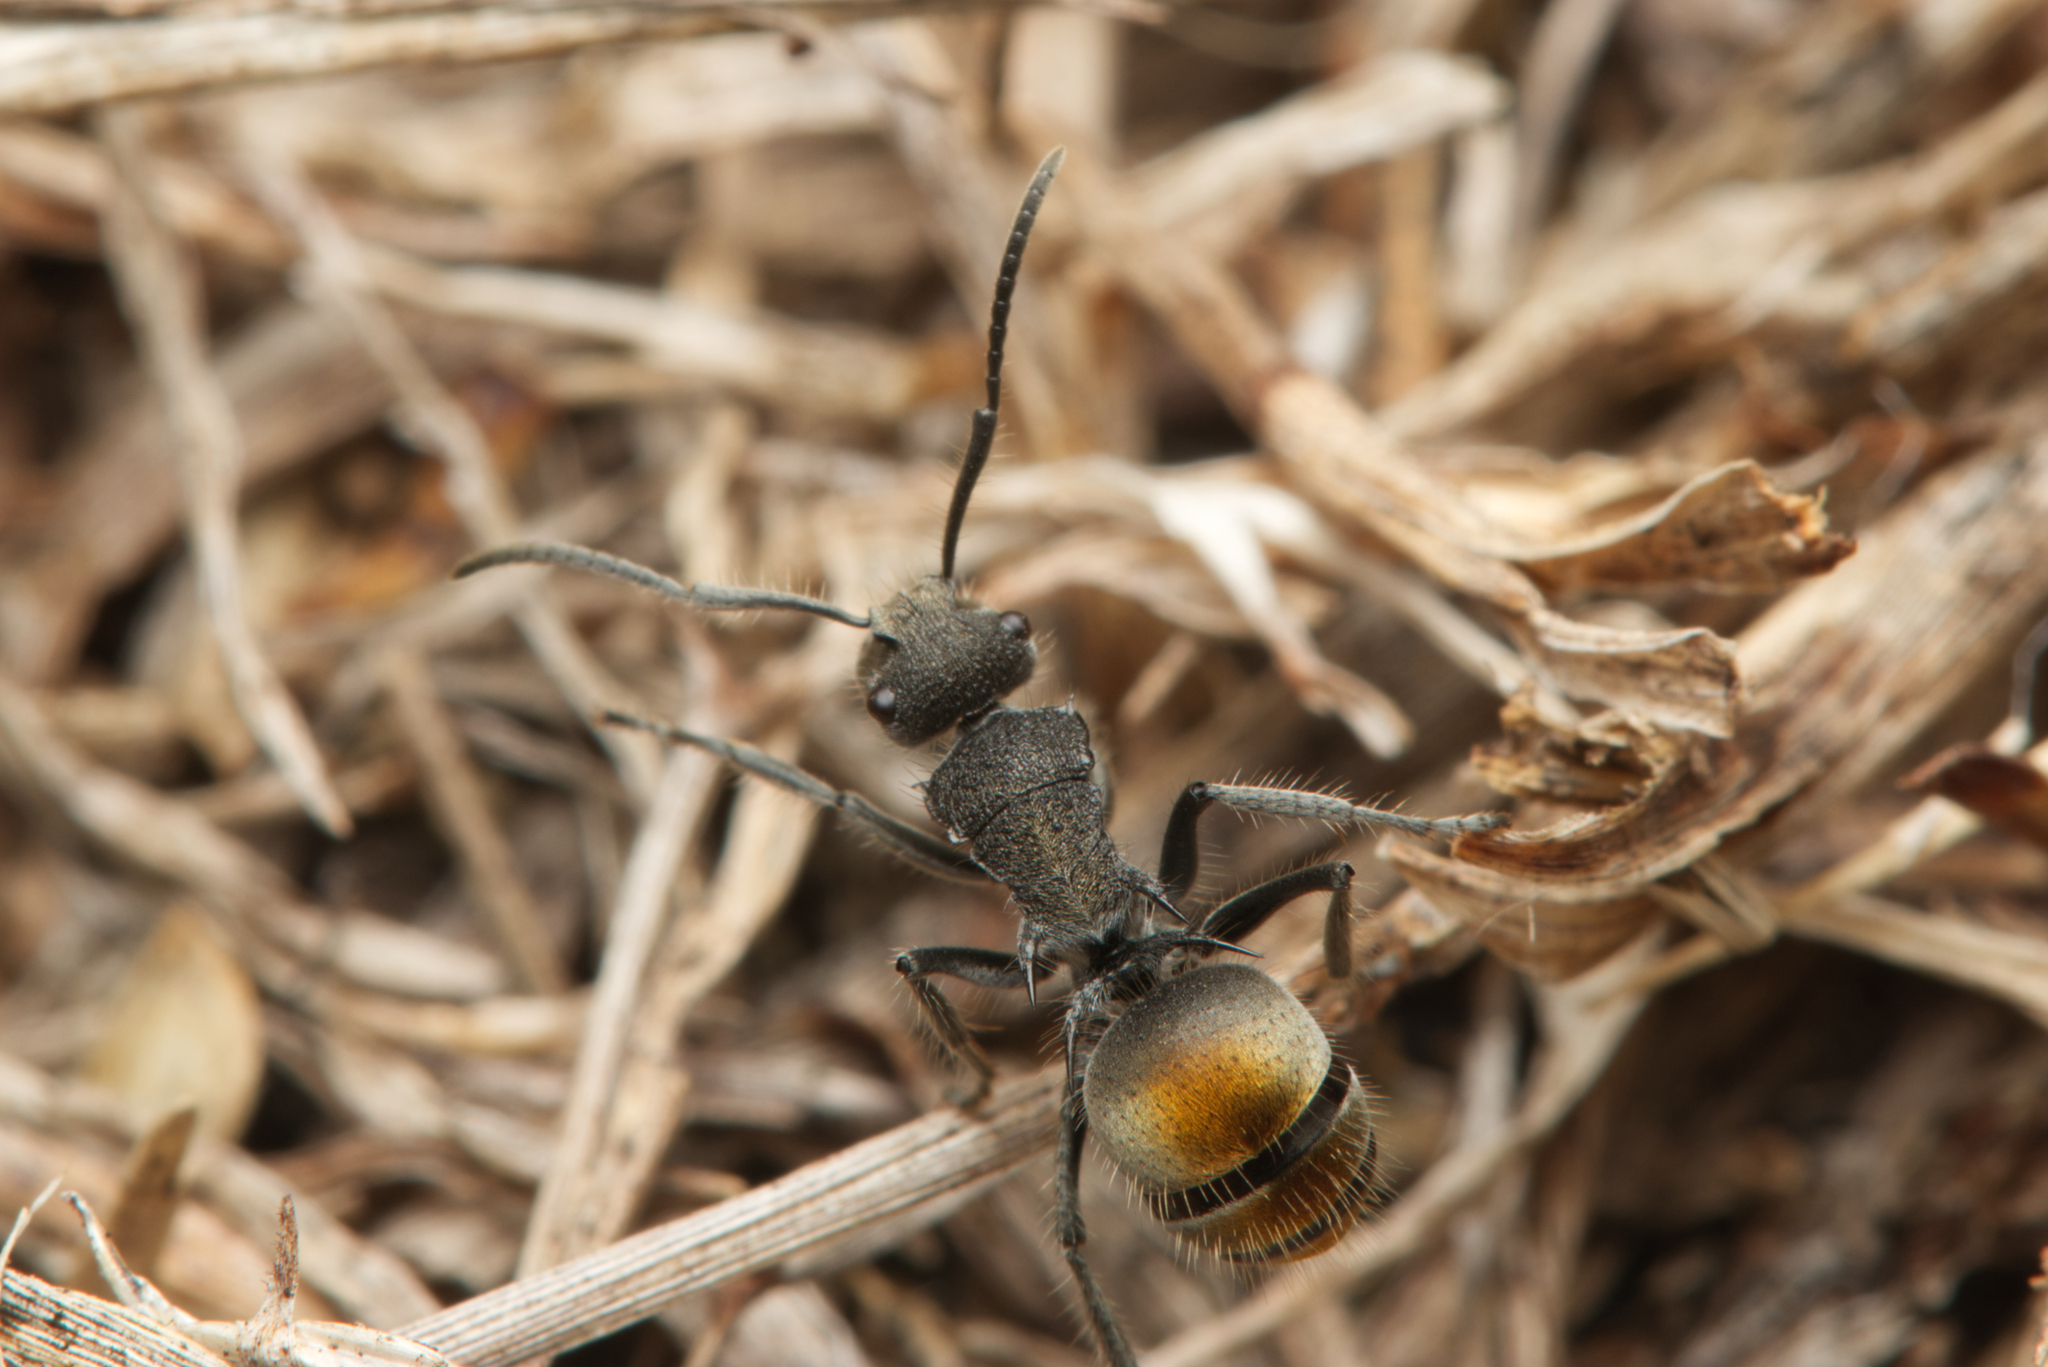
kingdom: Animalia
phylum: Arthropoda
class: Insecta
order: Hymenoptera
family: Formicidae
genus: Polyrhachis
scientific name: Polyrhachis vermiculosa
